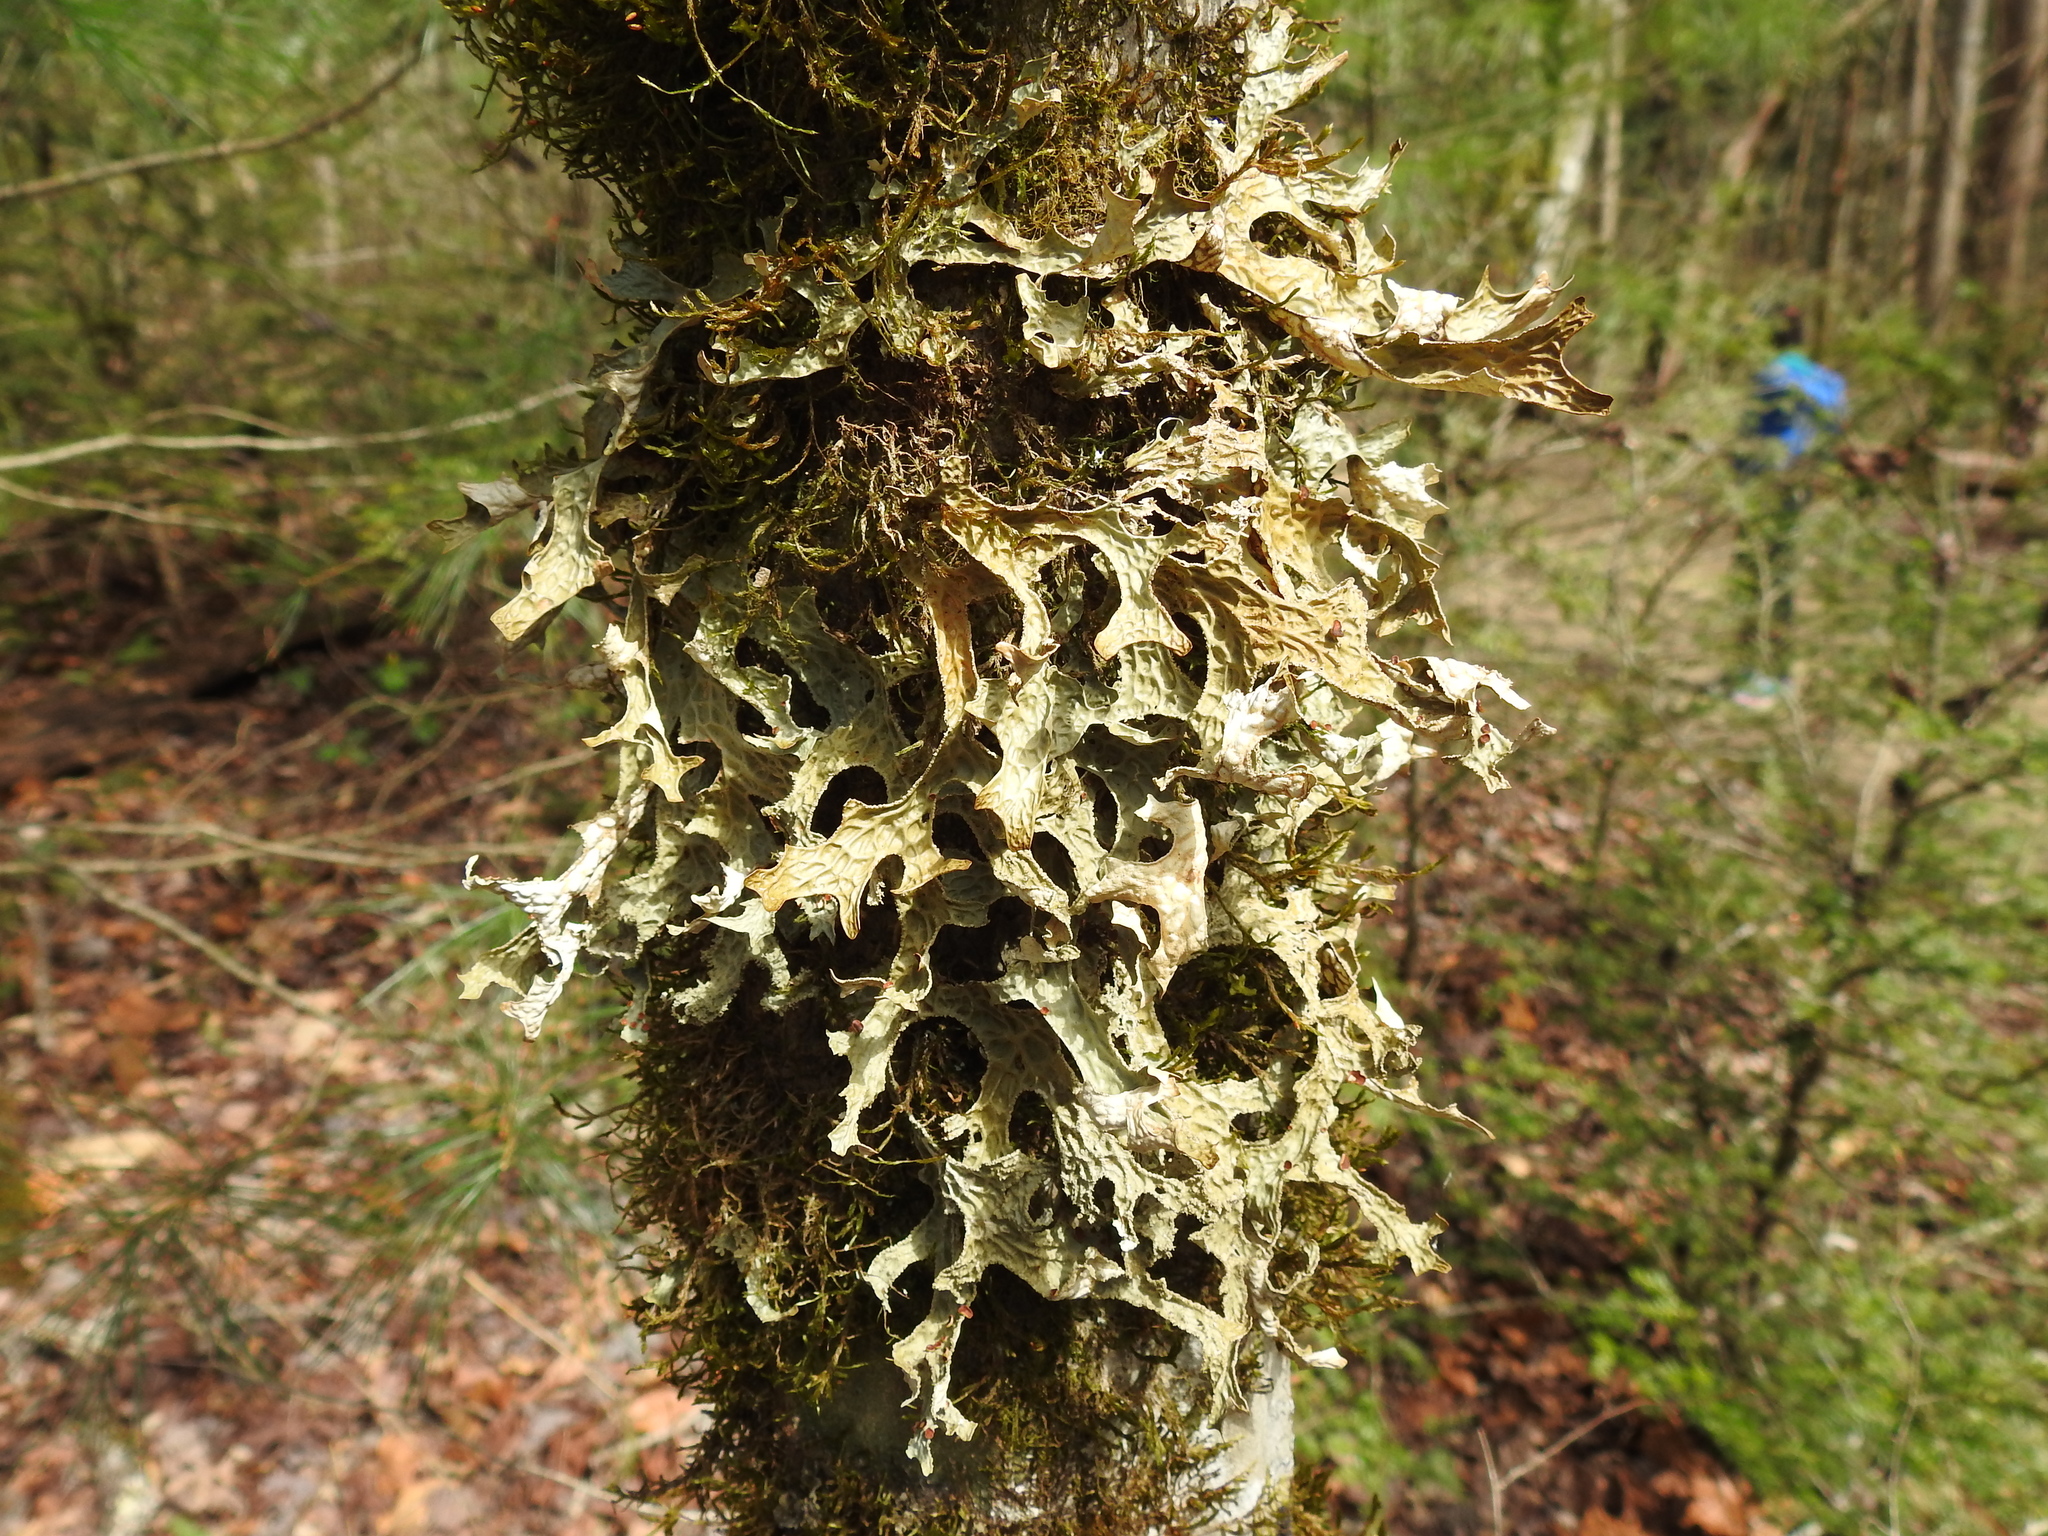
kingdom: Fungi
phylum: Ascomycota
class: Lecanoromycetes
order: Peltigerales
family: Lobariaceae
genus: Lobaria
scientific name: Lobaria pulmonaria
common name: Lungwort
